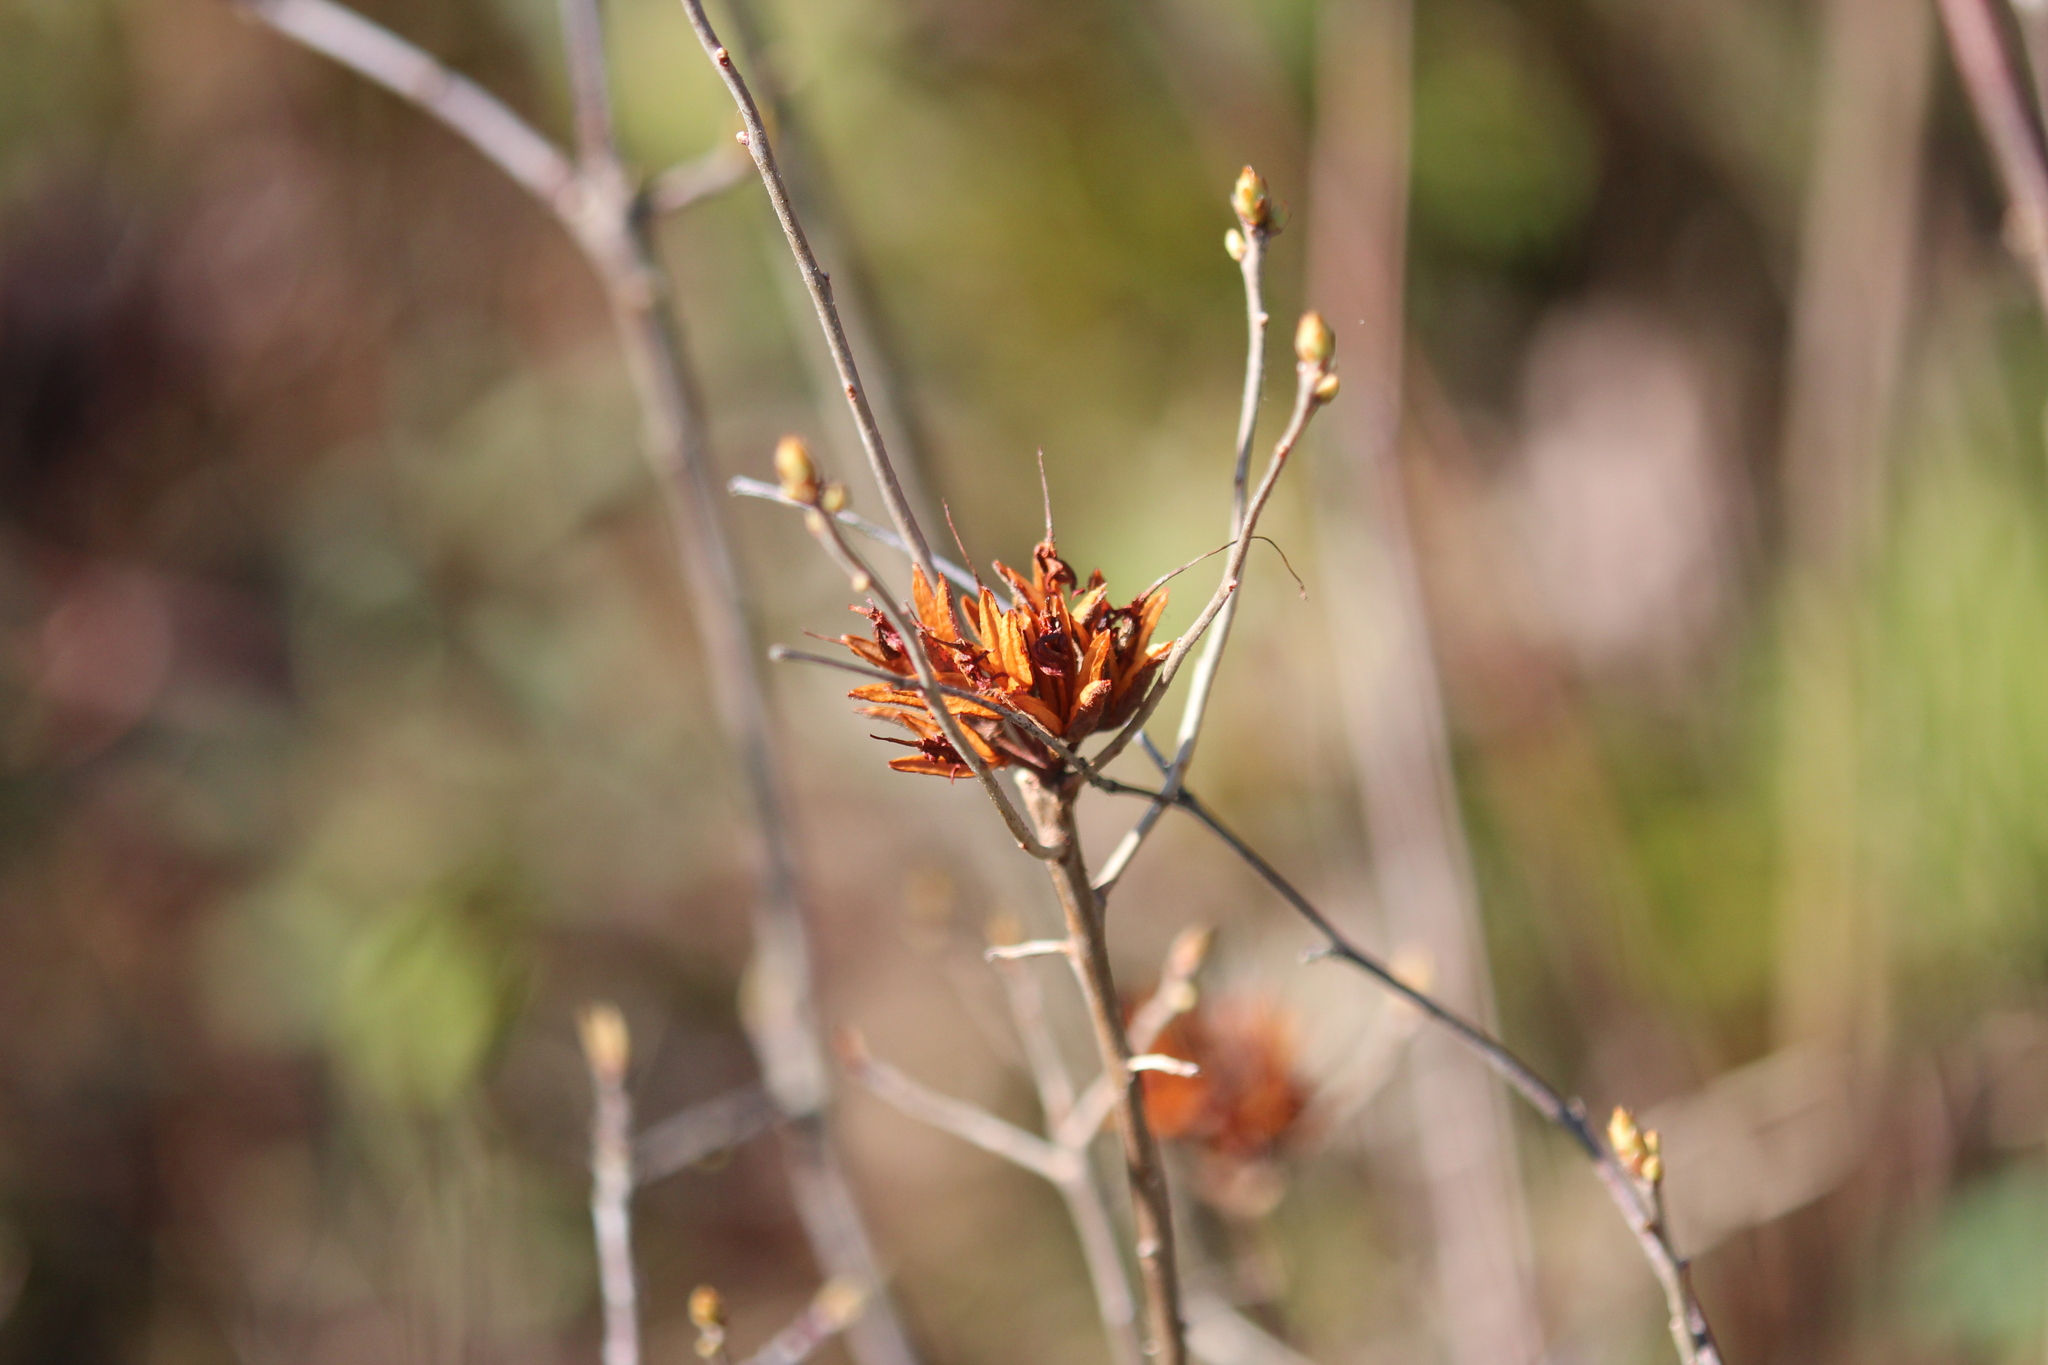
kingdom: Plantae
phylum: Tracheophyta
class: Magnoliopsida
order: Ericales
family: Ericaceae
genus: Rhododendron
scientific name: Rhododendron canadense
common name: Rhodora
